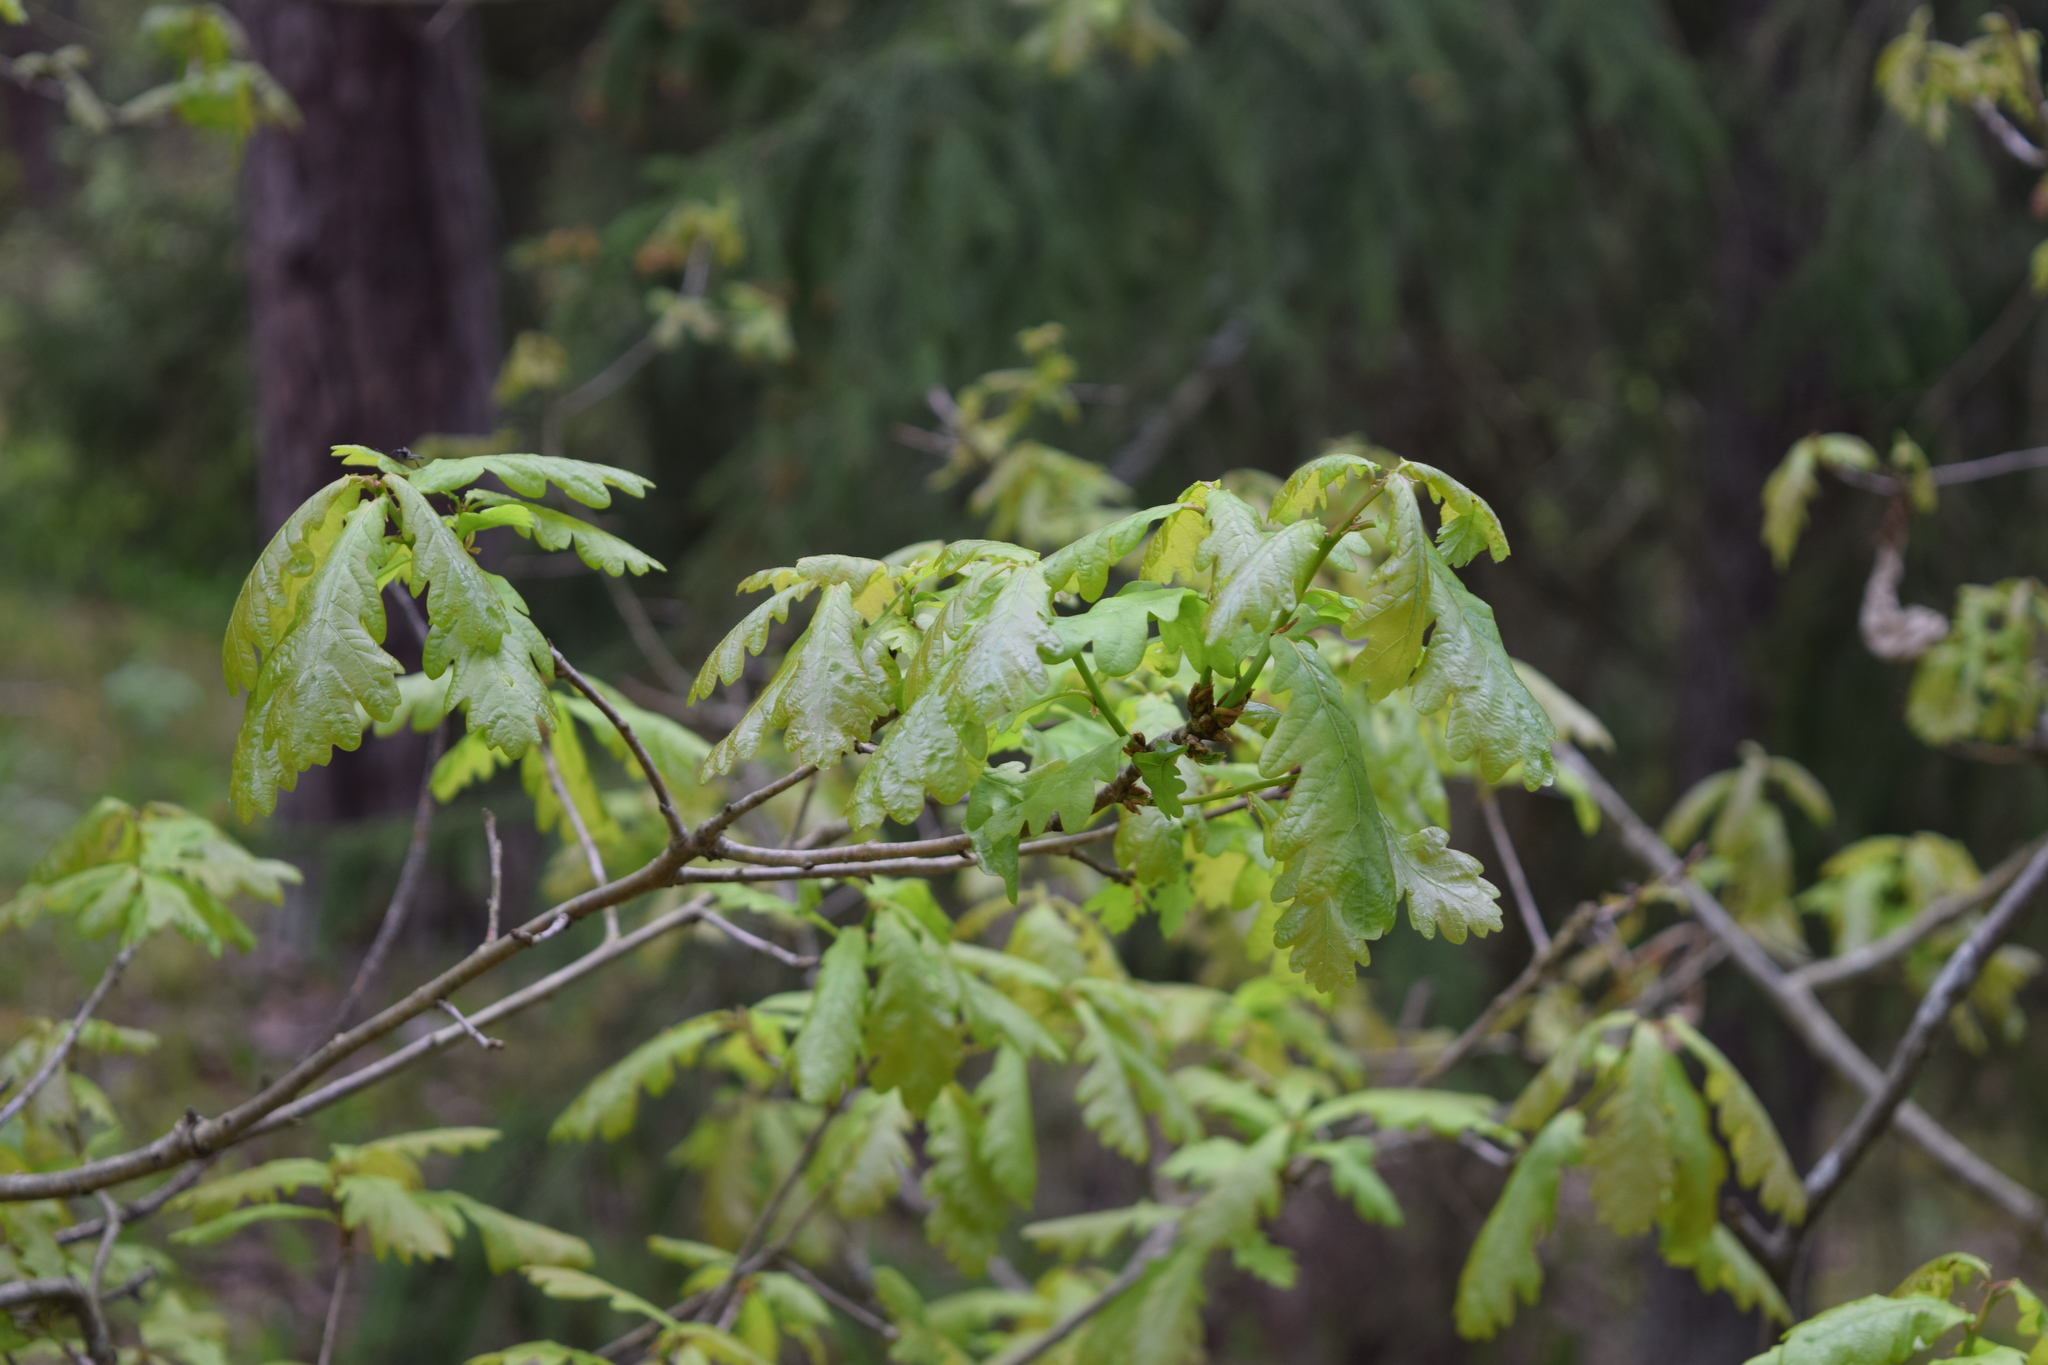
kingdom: Plantae
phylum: Tracheophyta
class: Magnoliopsida
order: Fagales
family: Fagaceae
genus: Quercus
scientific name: Quercus robur
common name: Pedunculate oak
